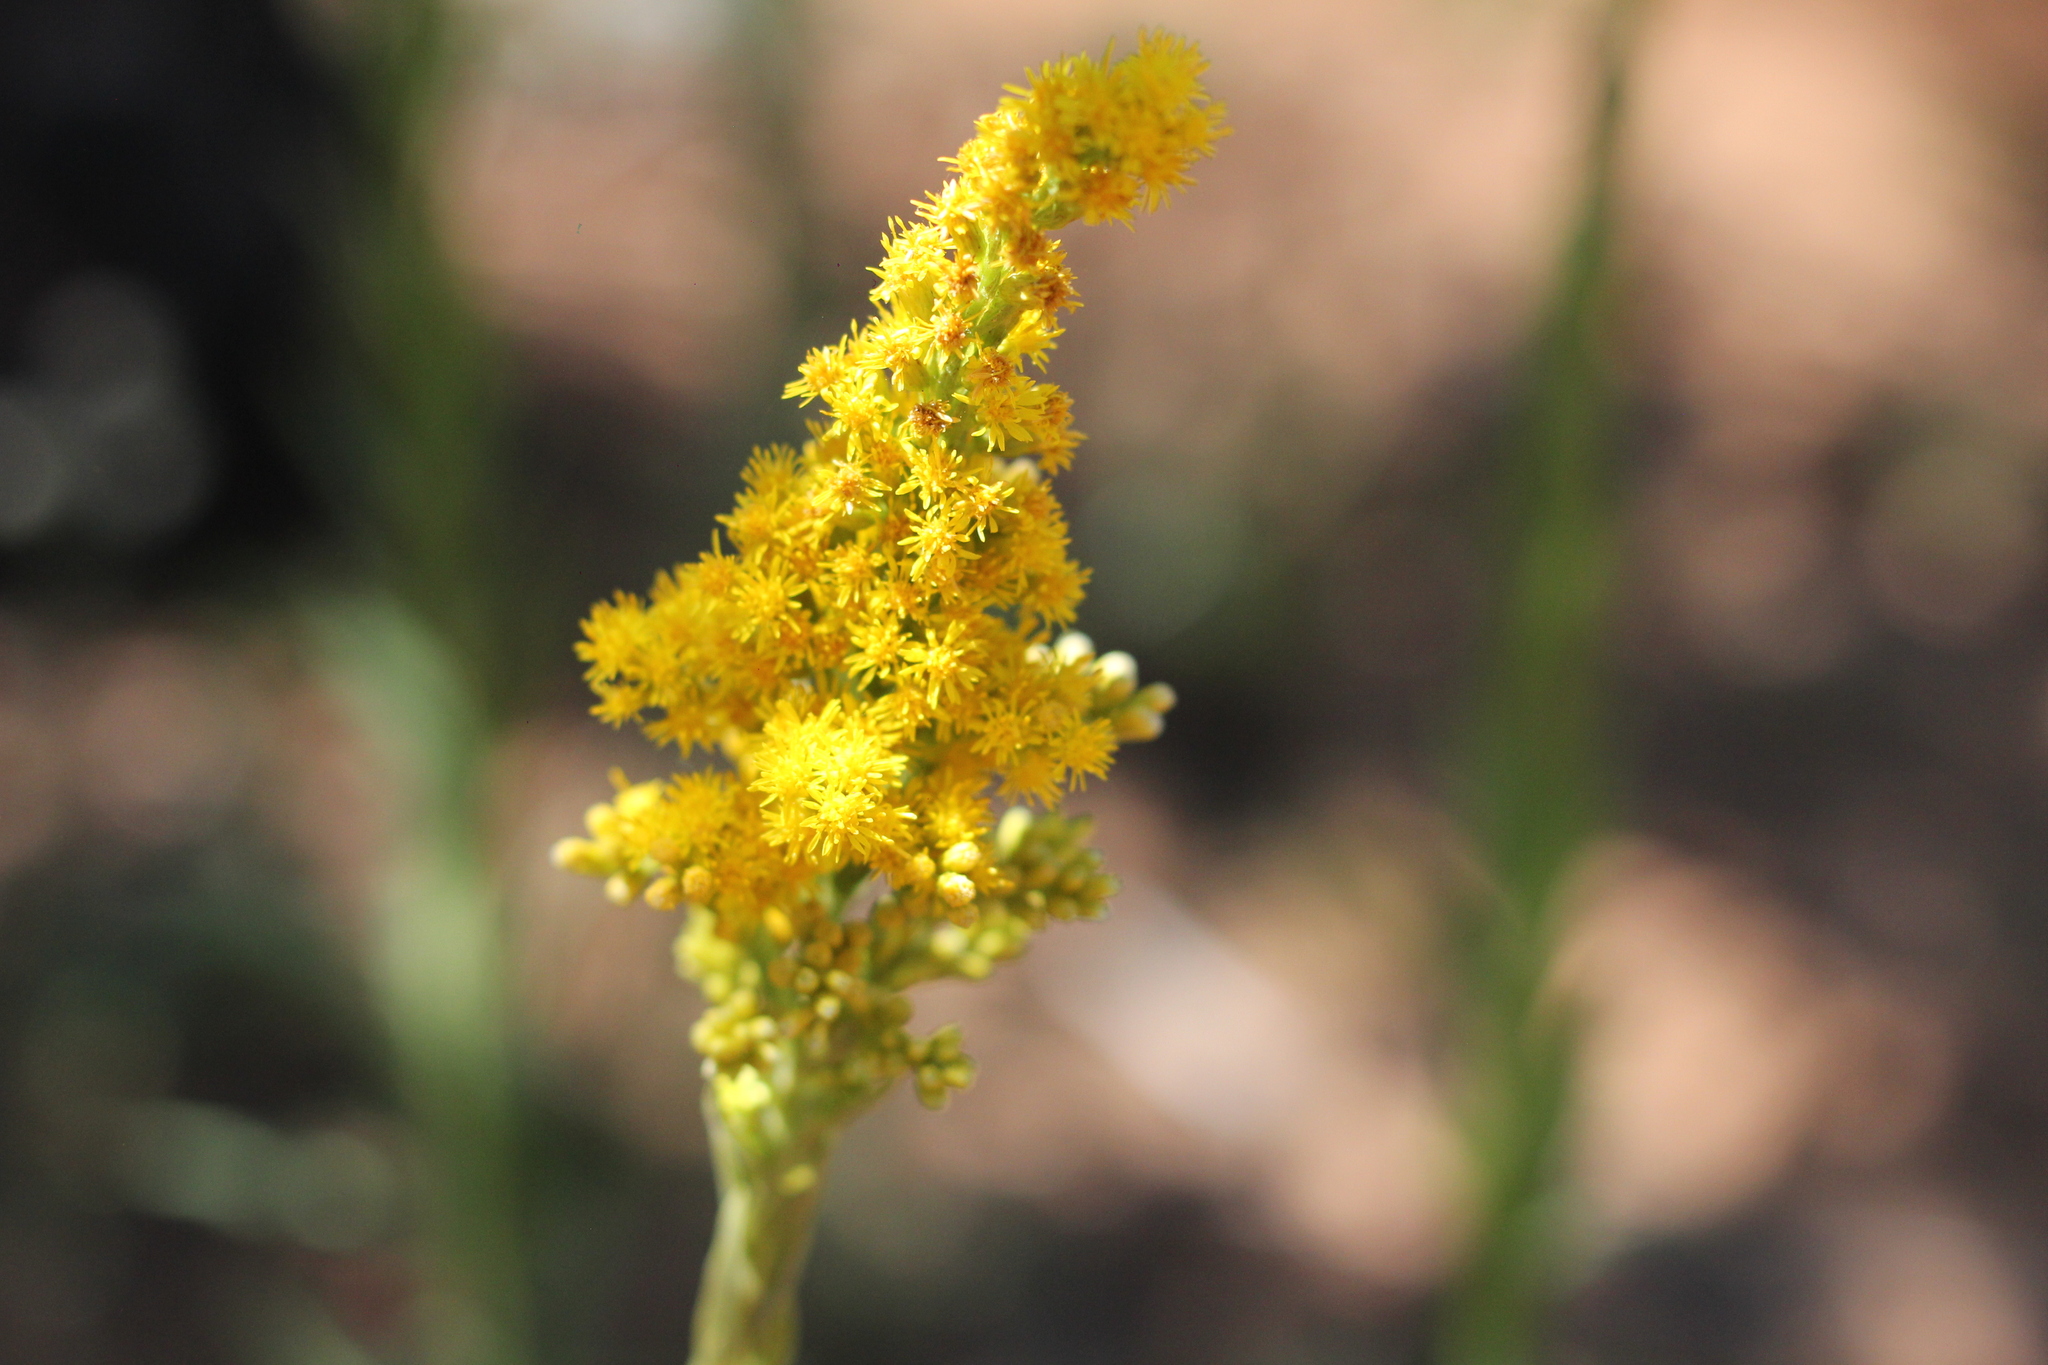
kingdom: Plantae
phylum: Tracheophyta
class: Magnoliopsida
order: Asterales
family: Asteraceae
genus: Solidago
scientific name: Solidago chilensis
